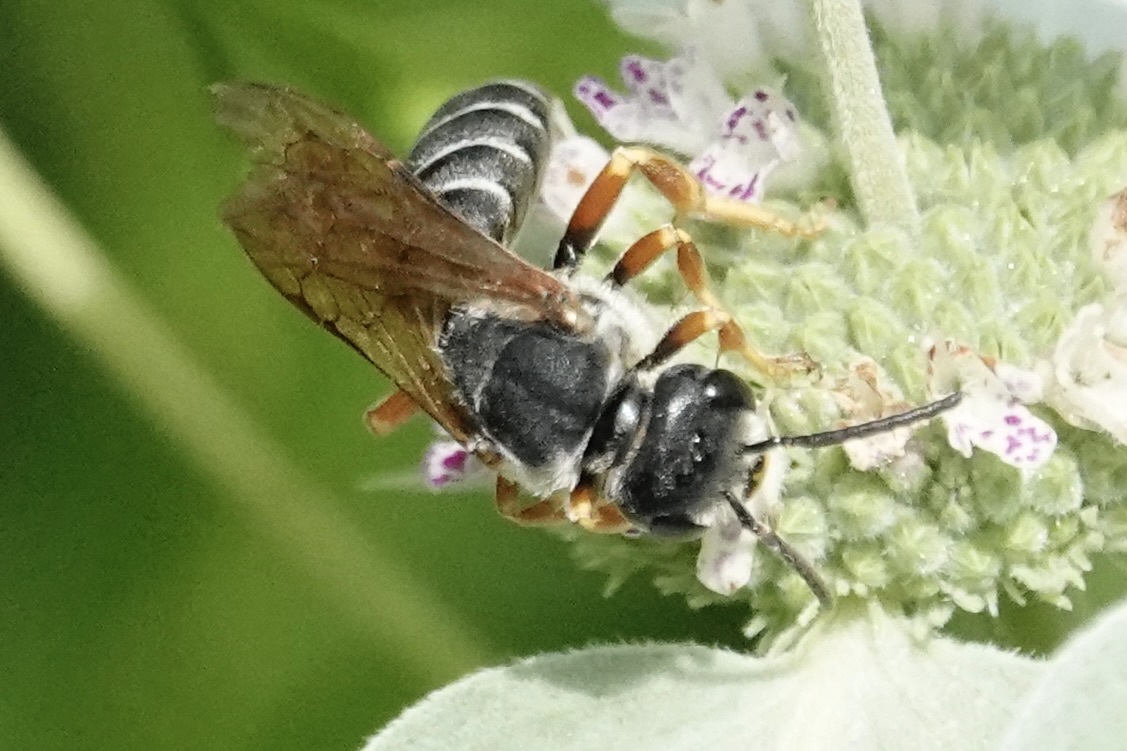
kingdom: Animalia
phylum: Arthropoda
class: Insecta
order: Hymenoptera
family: Halictidae
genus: Halictus
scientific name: Halictus parallelus
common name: Parallel-striped sweat bee
